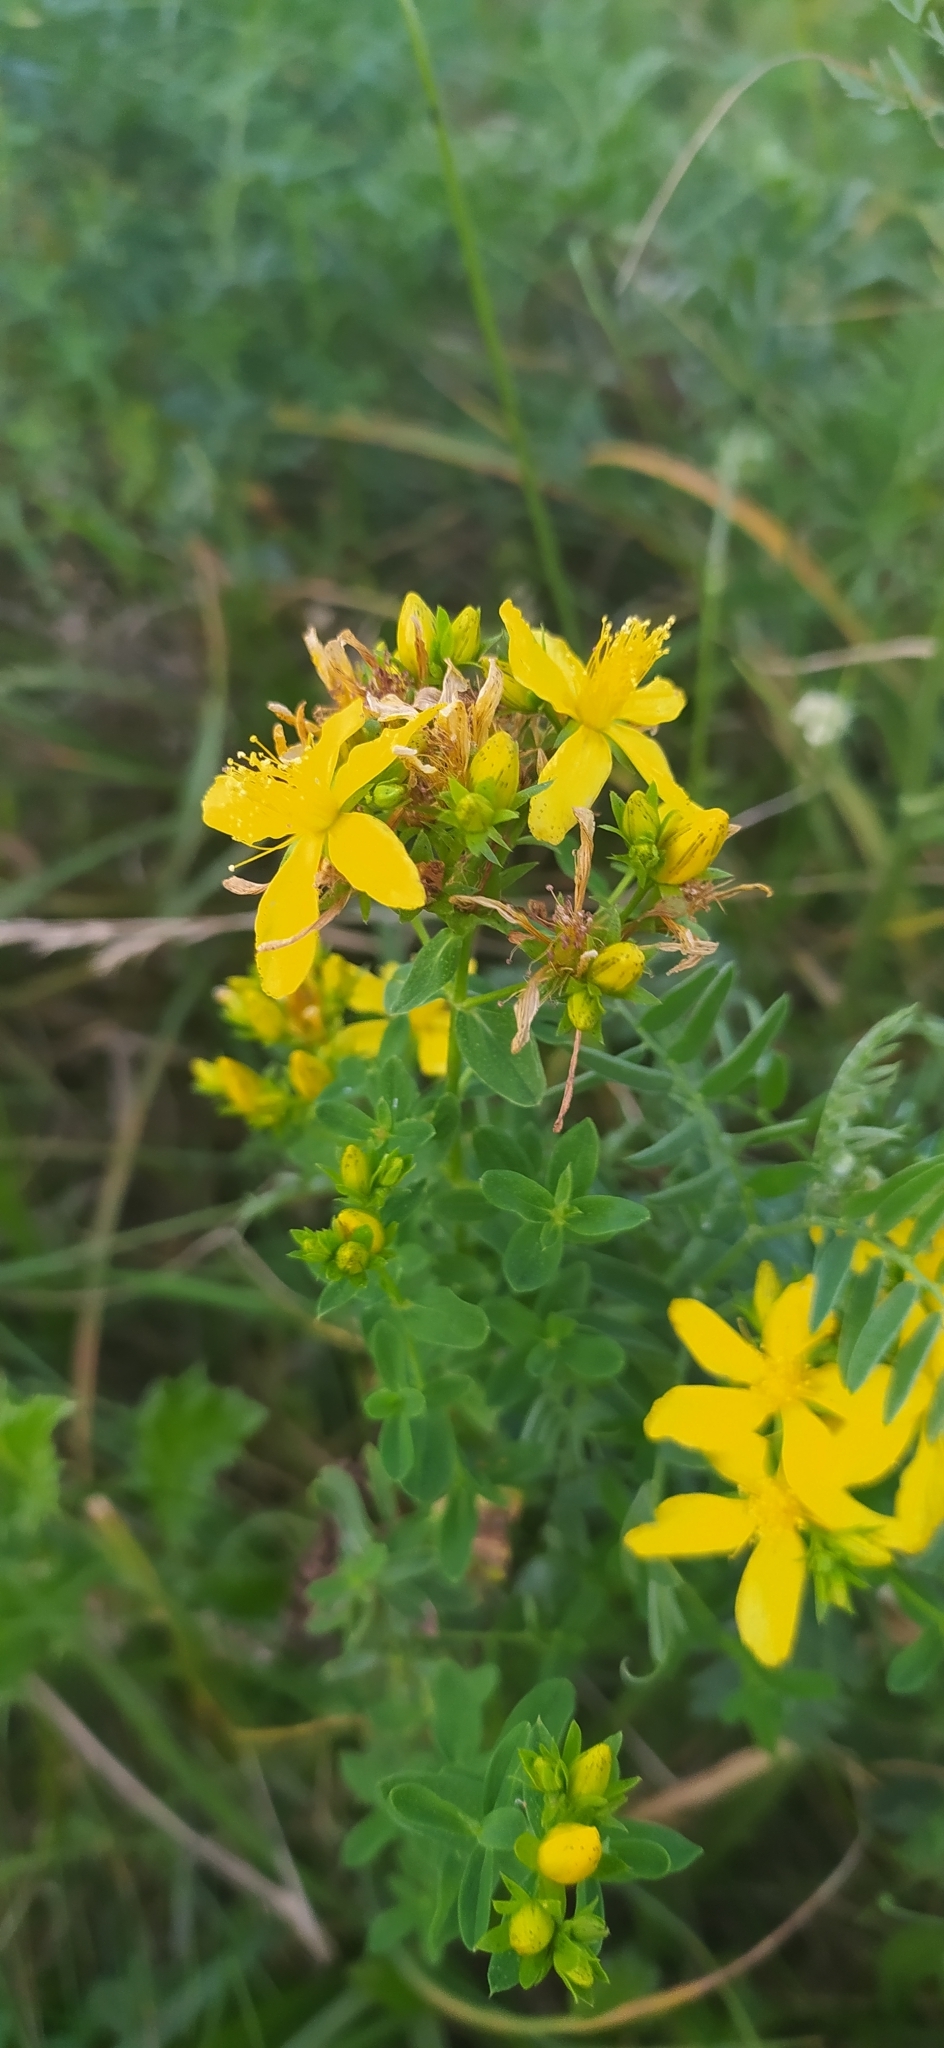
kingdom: Plantae
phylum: Tracheophyta
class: Magnoliopsida
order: Malpighiales
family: Hypericaceae
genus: Hypericum
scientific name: Hypericum perforatum
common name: Common st. johnswort
